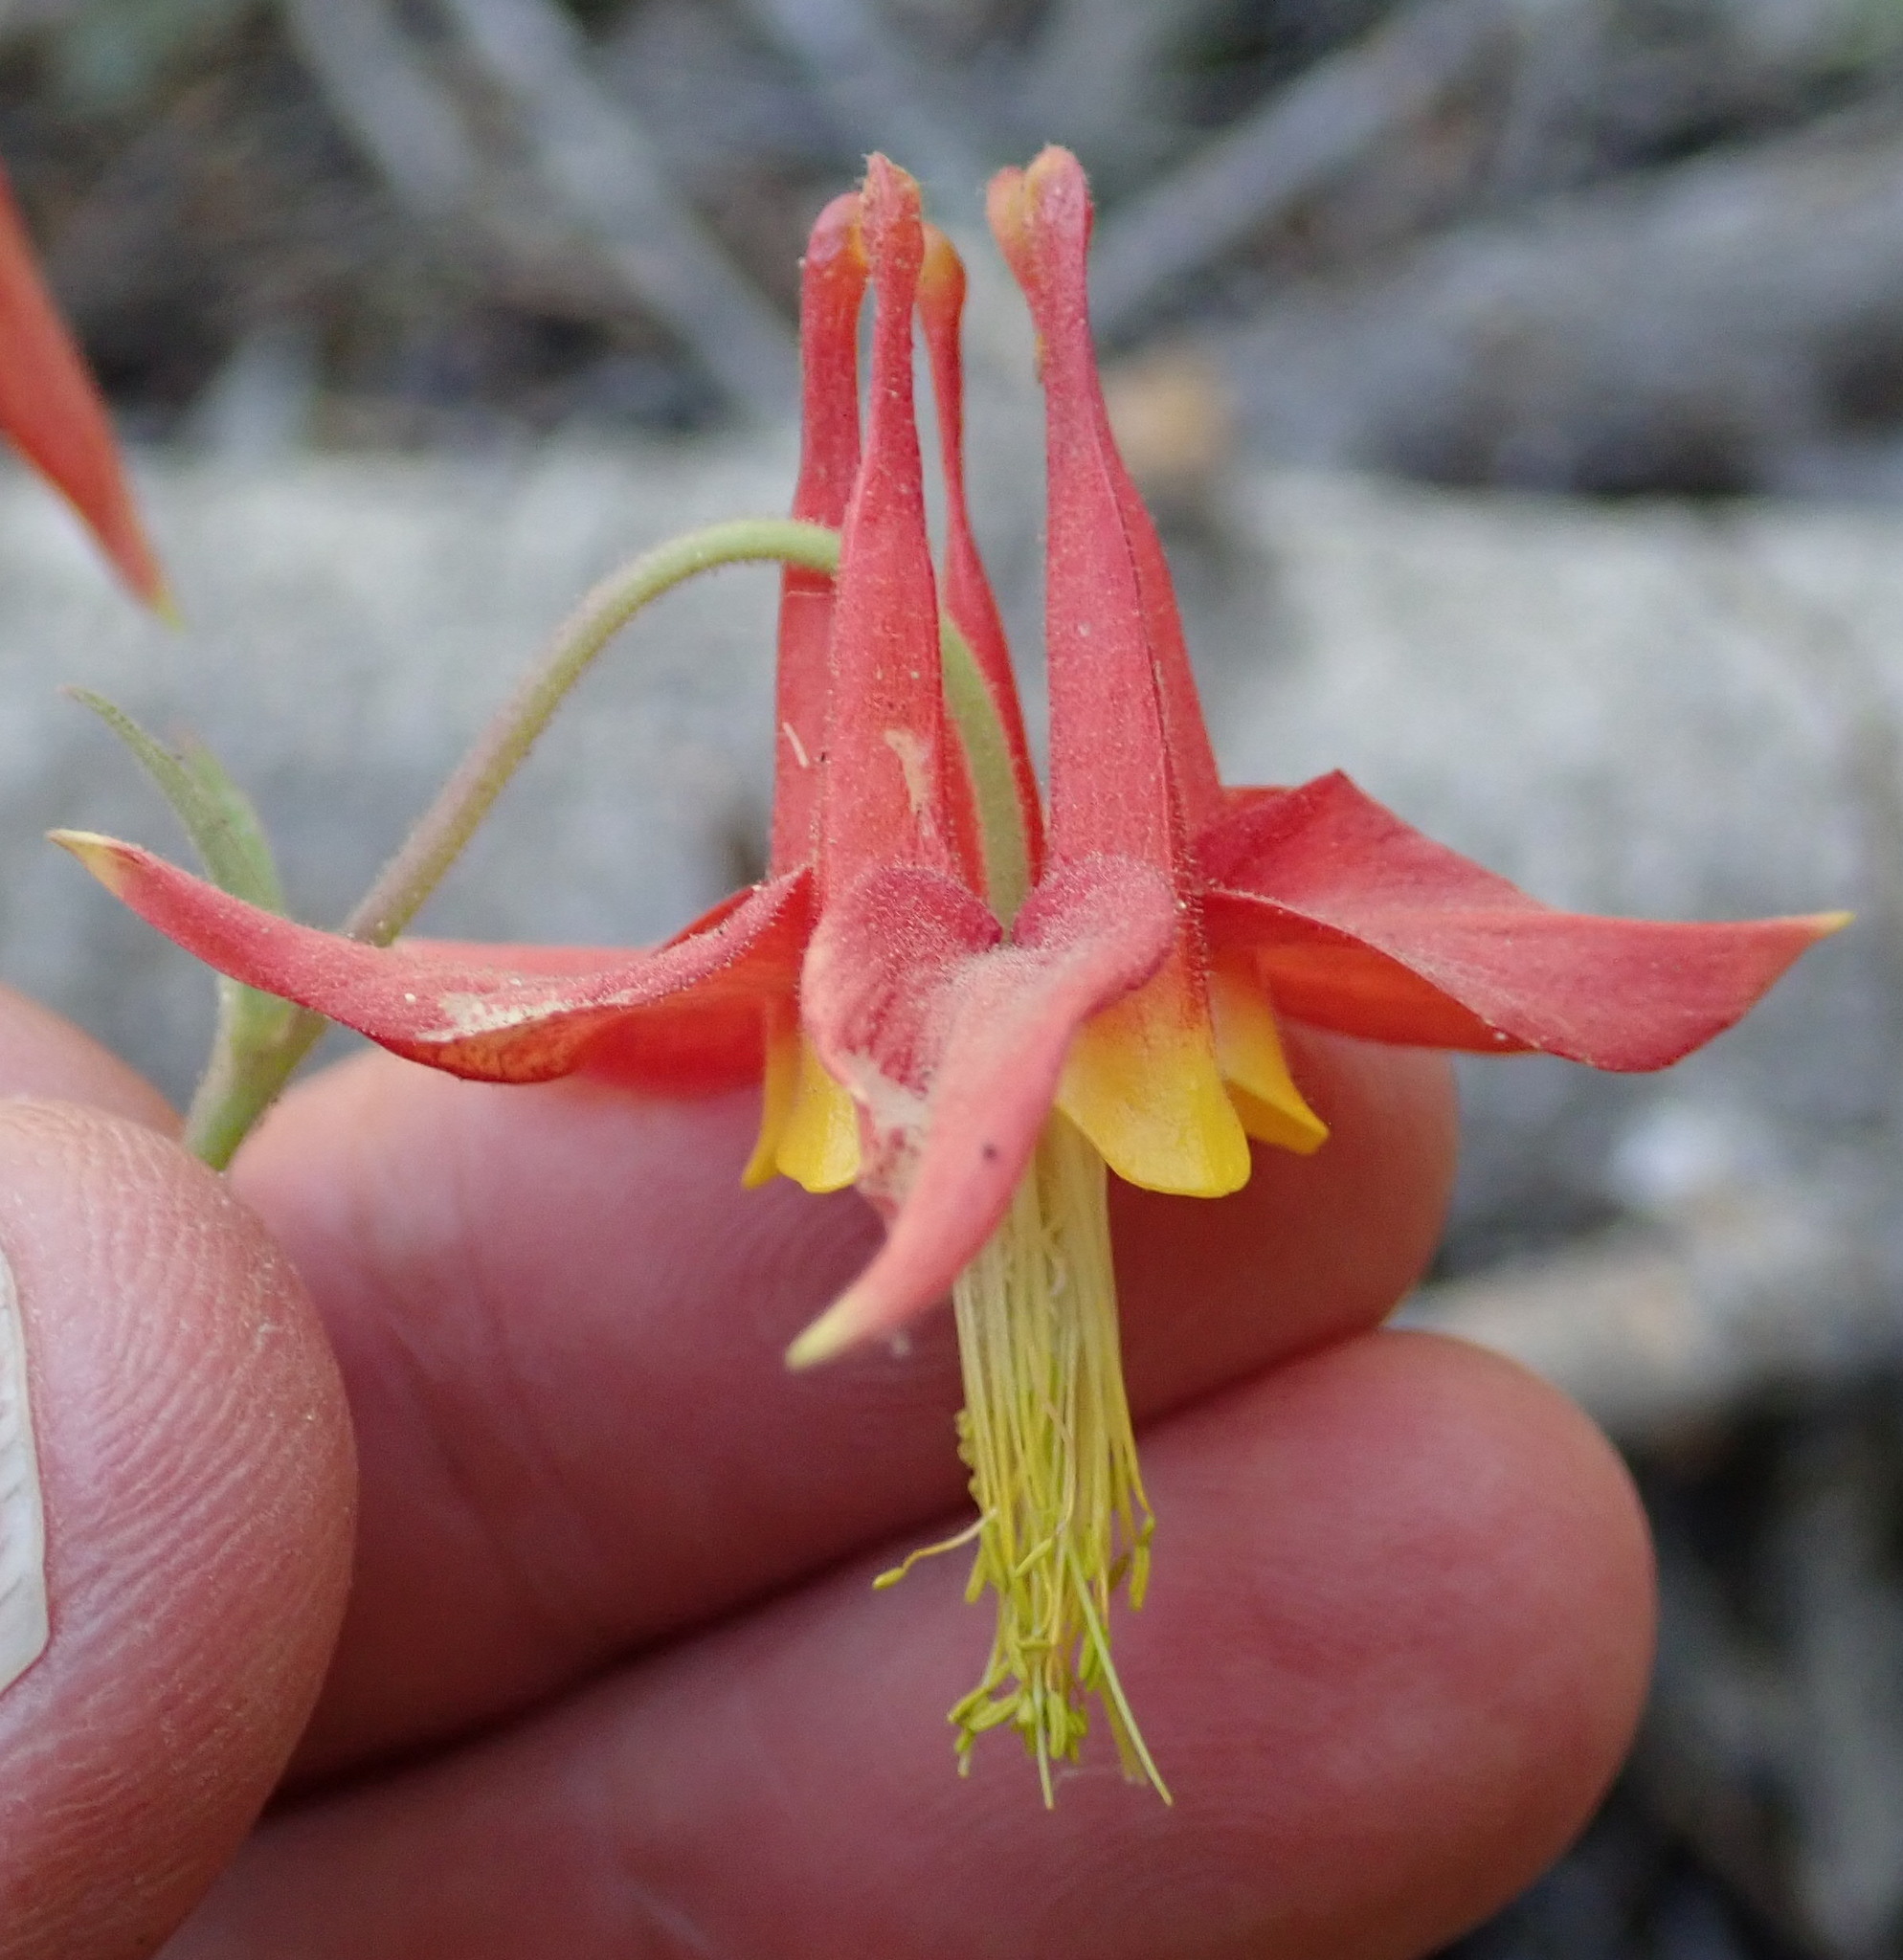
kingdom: Plantae
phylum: Tracheophyta
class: Magnoliopsida
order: Ranunculales
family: Ranunculaceae
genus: Aquilegia
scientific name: Aquilegia formosa
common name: Sitka columbine
